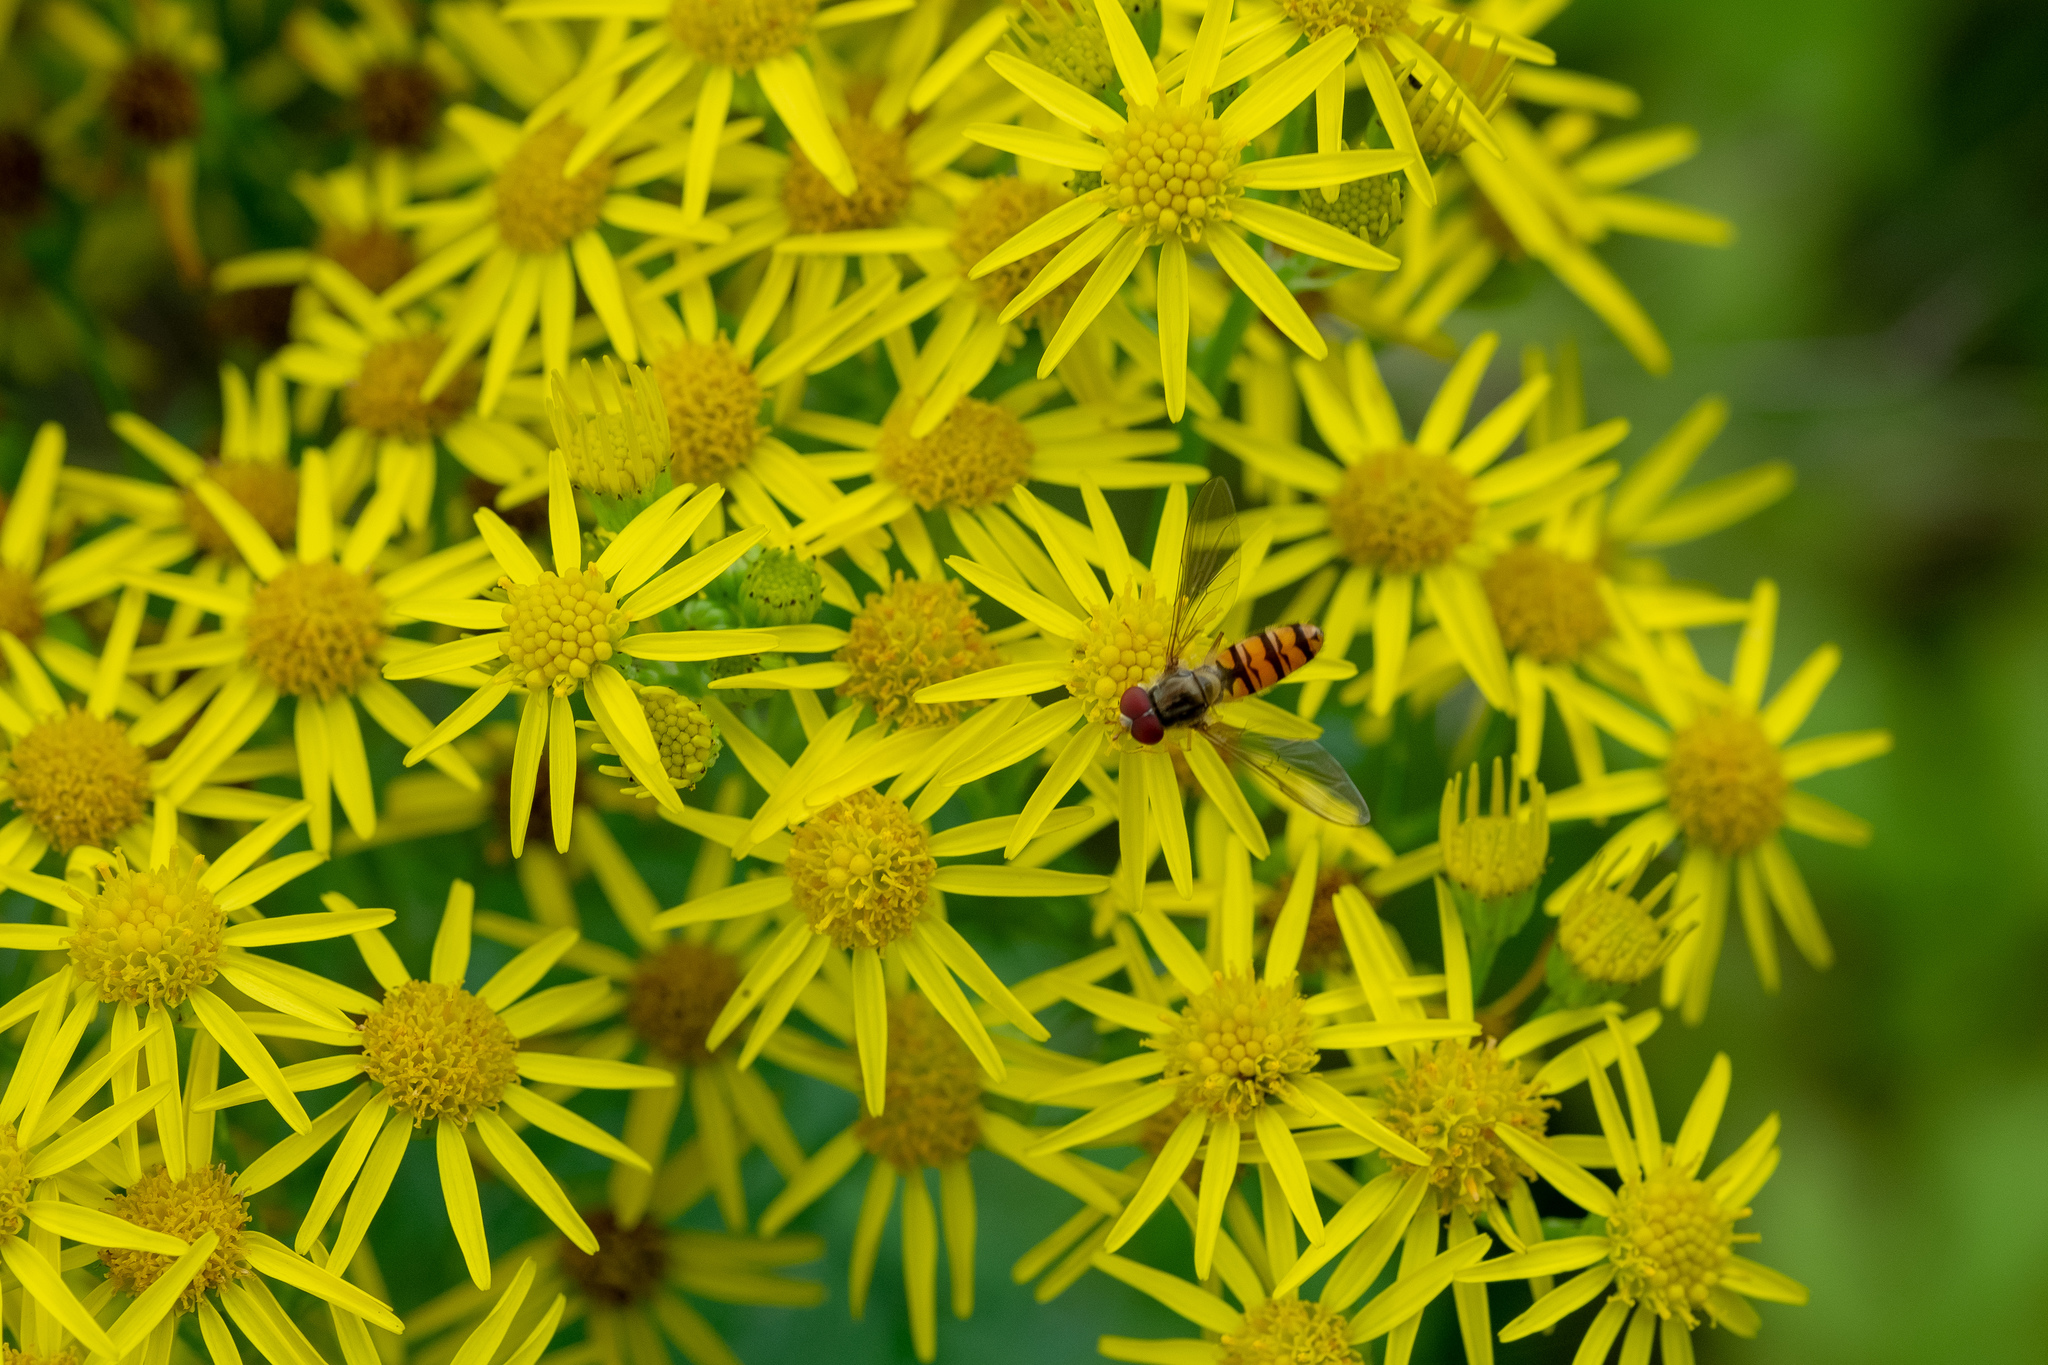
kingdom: Animalia
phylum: Arthropoda
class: Insecta
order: Diptera
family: Syrphidae
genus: Episyrphus
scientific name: Episyrphus balteatus
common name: Marmalade hoverfly
